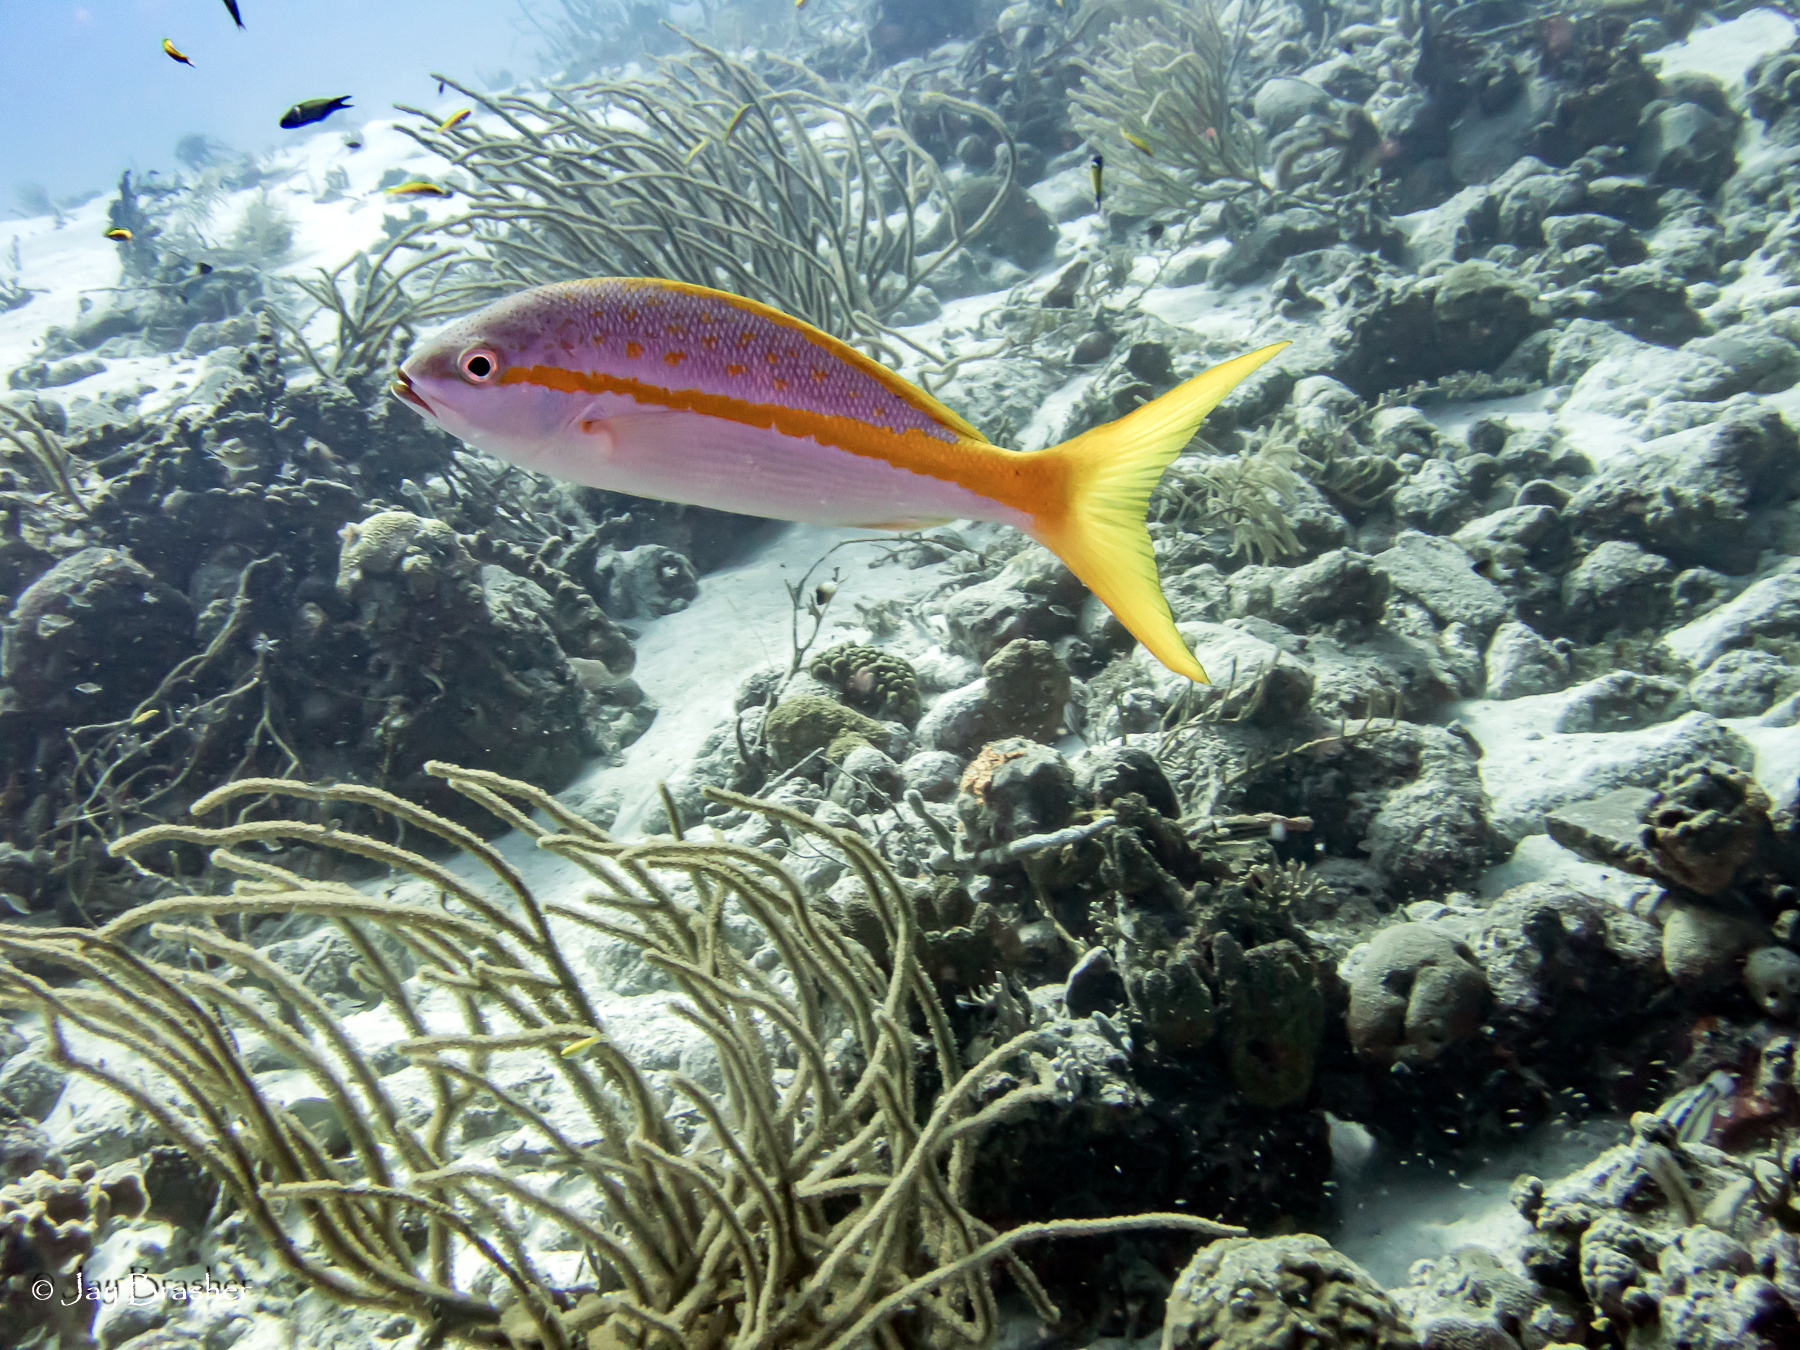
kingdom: Animalia
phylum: Chordata
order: Perciformes
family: Lutjanidae
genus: Ocyurus
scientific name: Ocyurus chrysurus
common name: Yellowtail snapper
